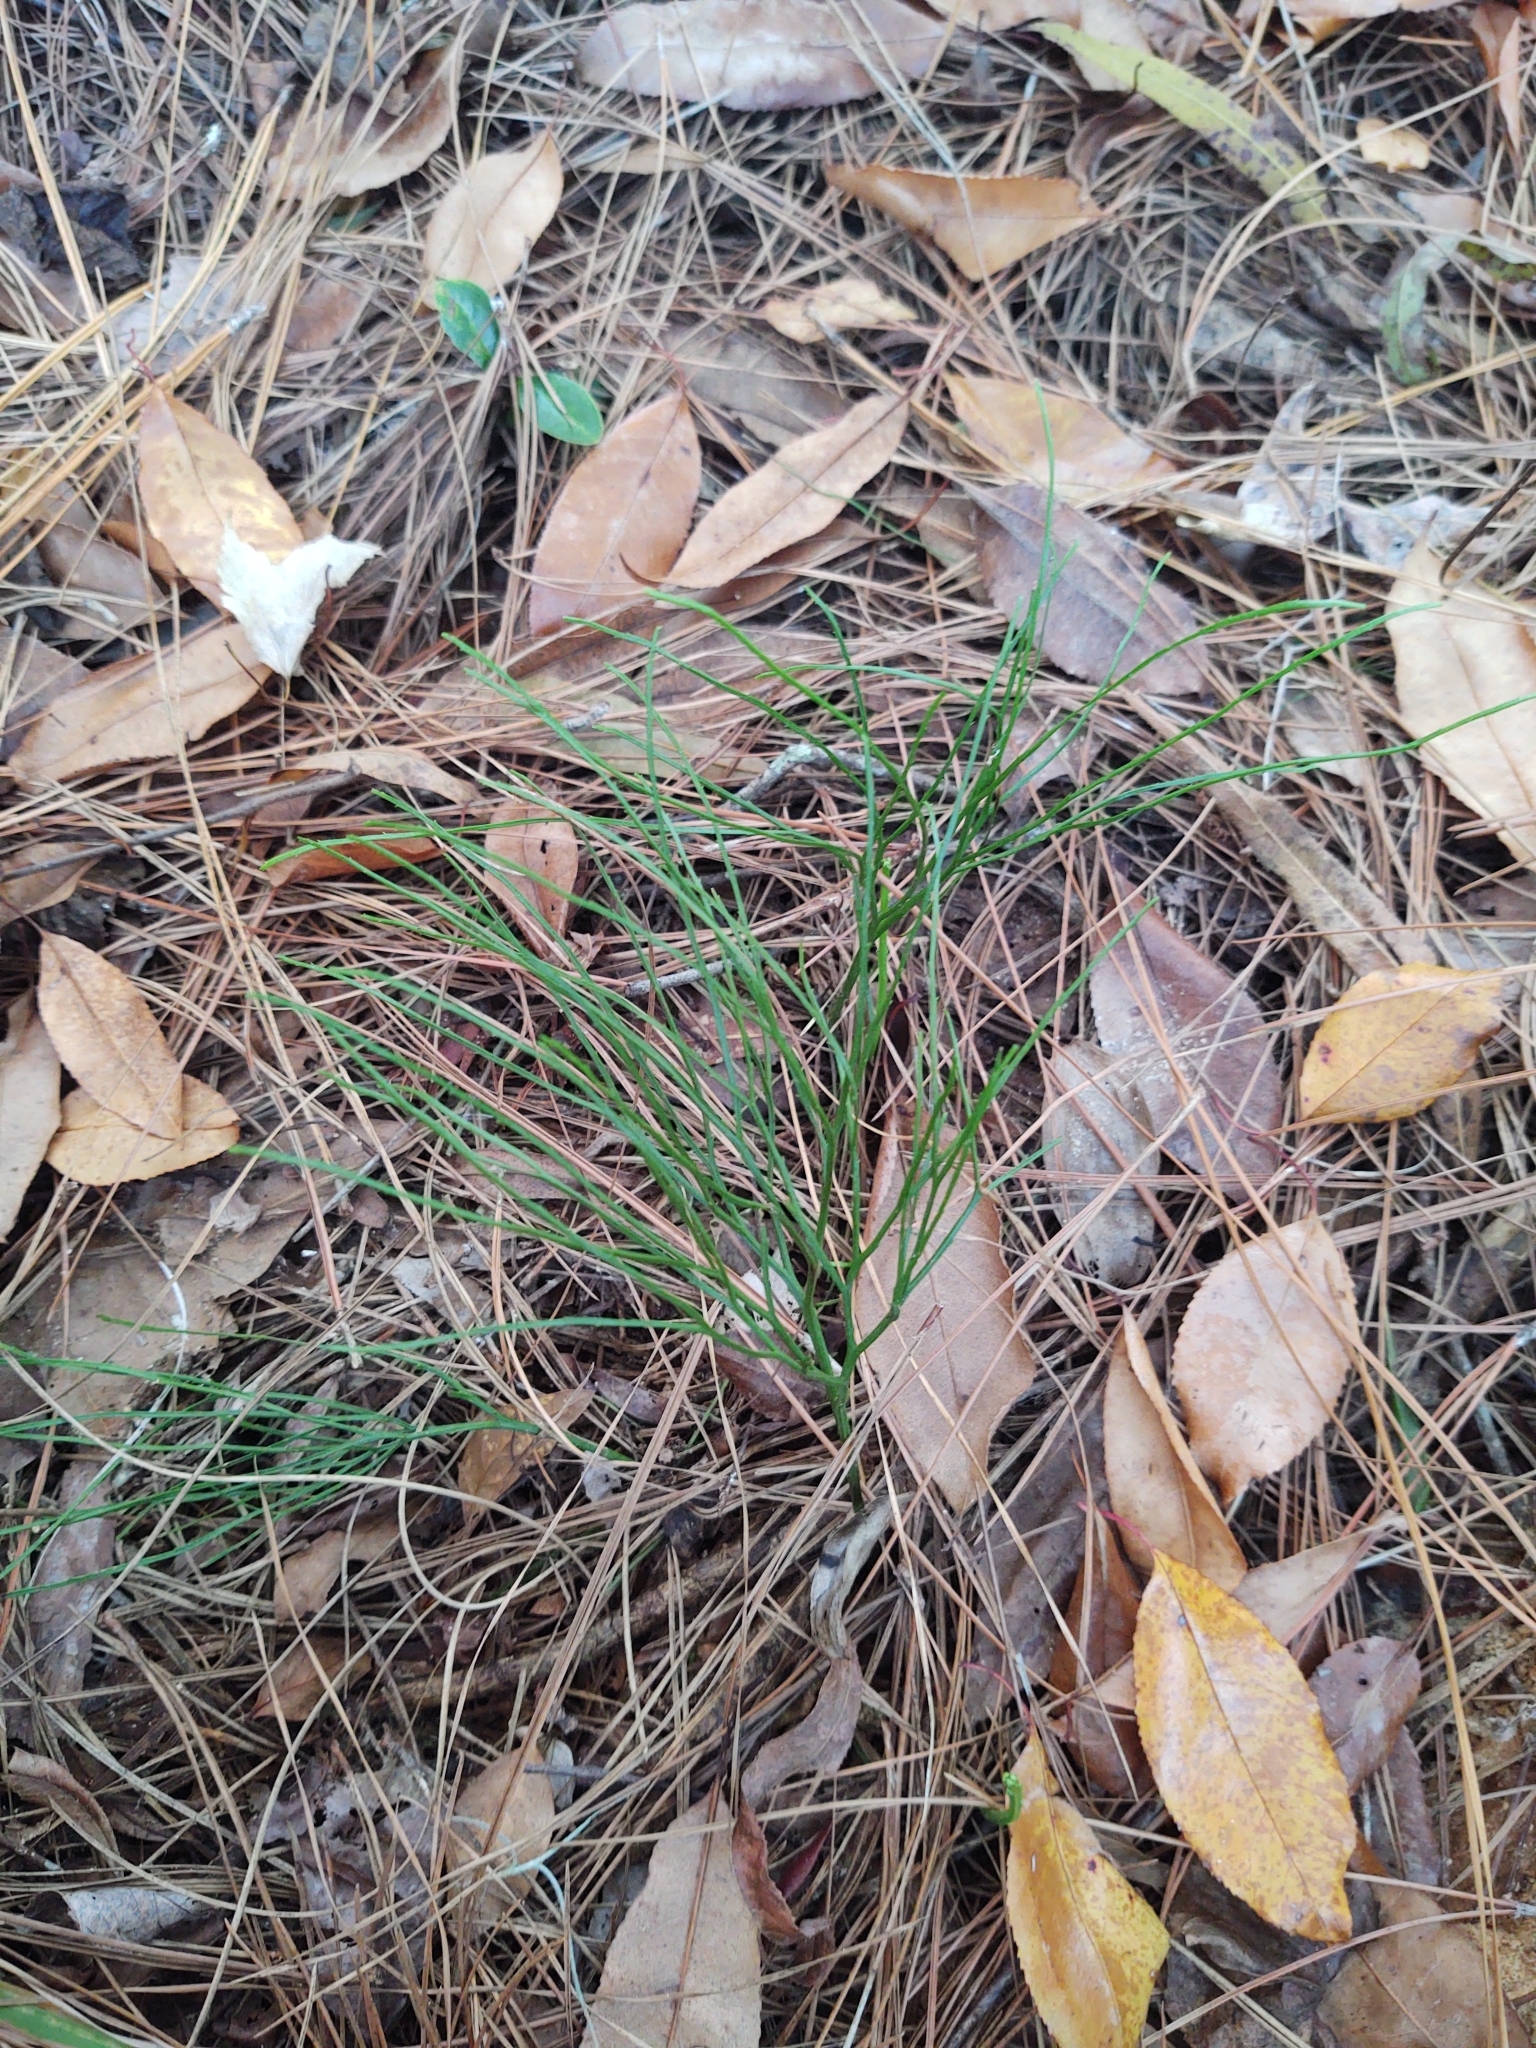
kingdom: Plantae
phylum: Tracheophyta
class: Polypodiopsida
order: Psilotales
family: Psilotaceae
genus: Psilotum
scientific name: Psilotum nudum
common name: Skeleton fork fern
